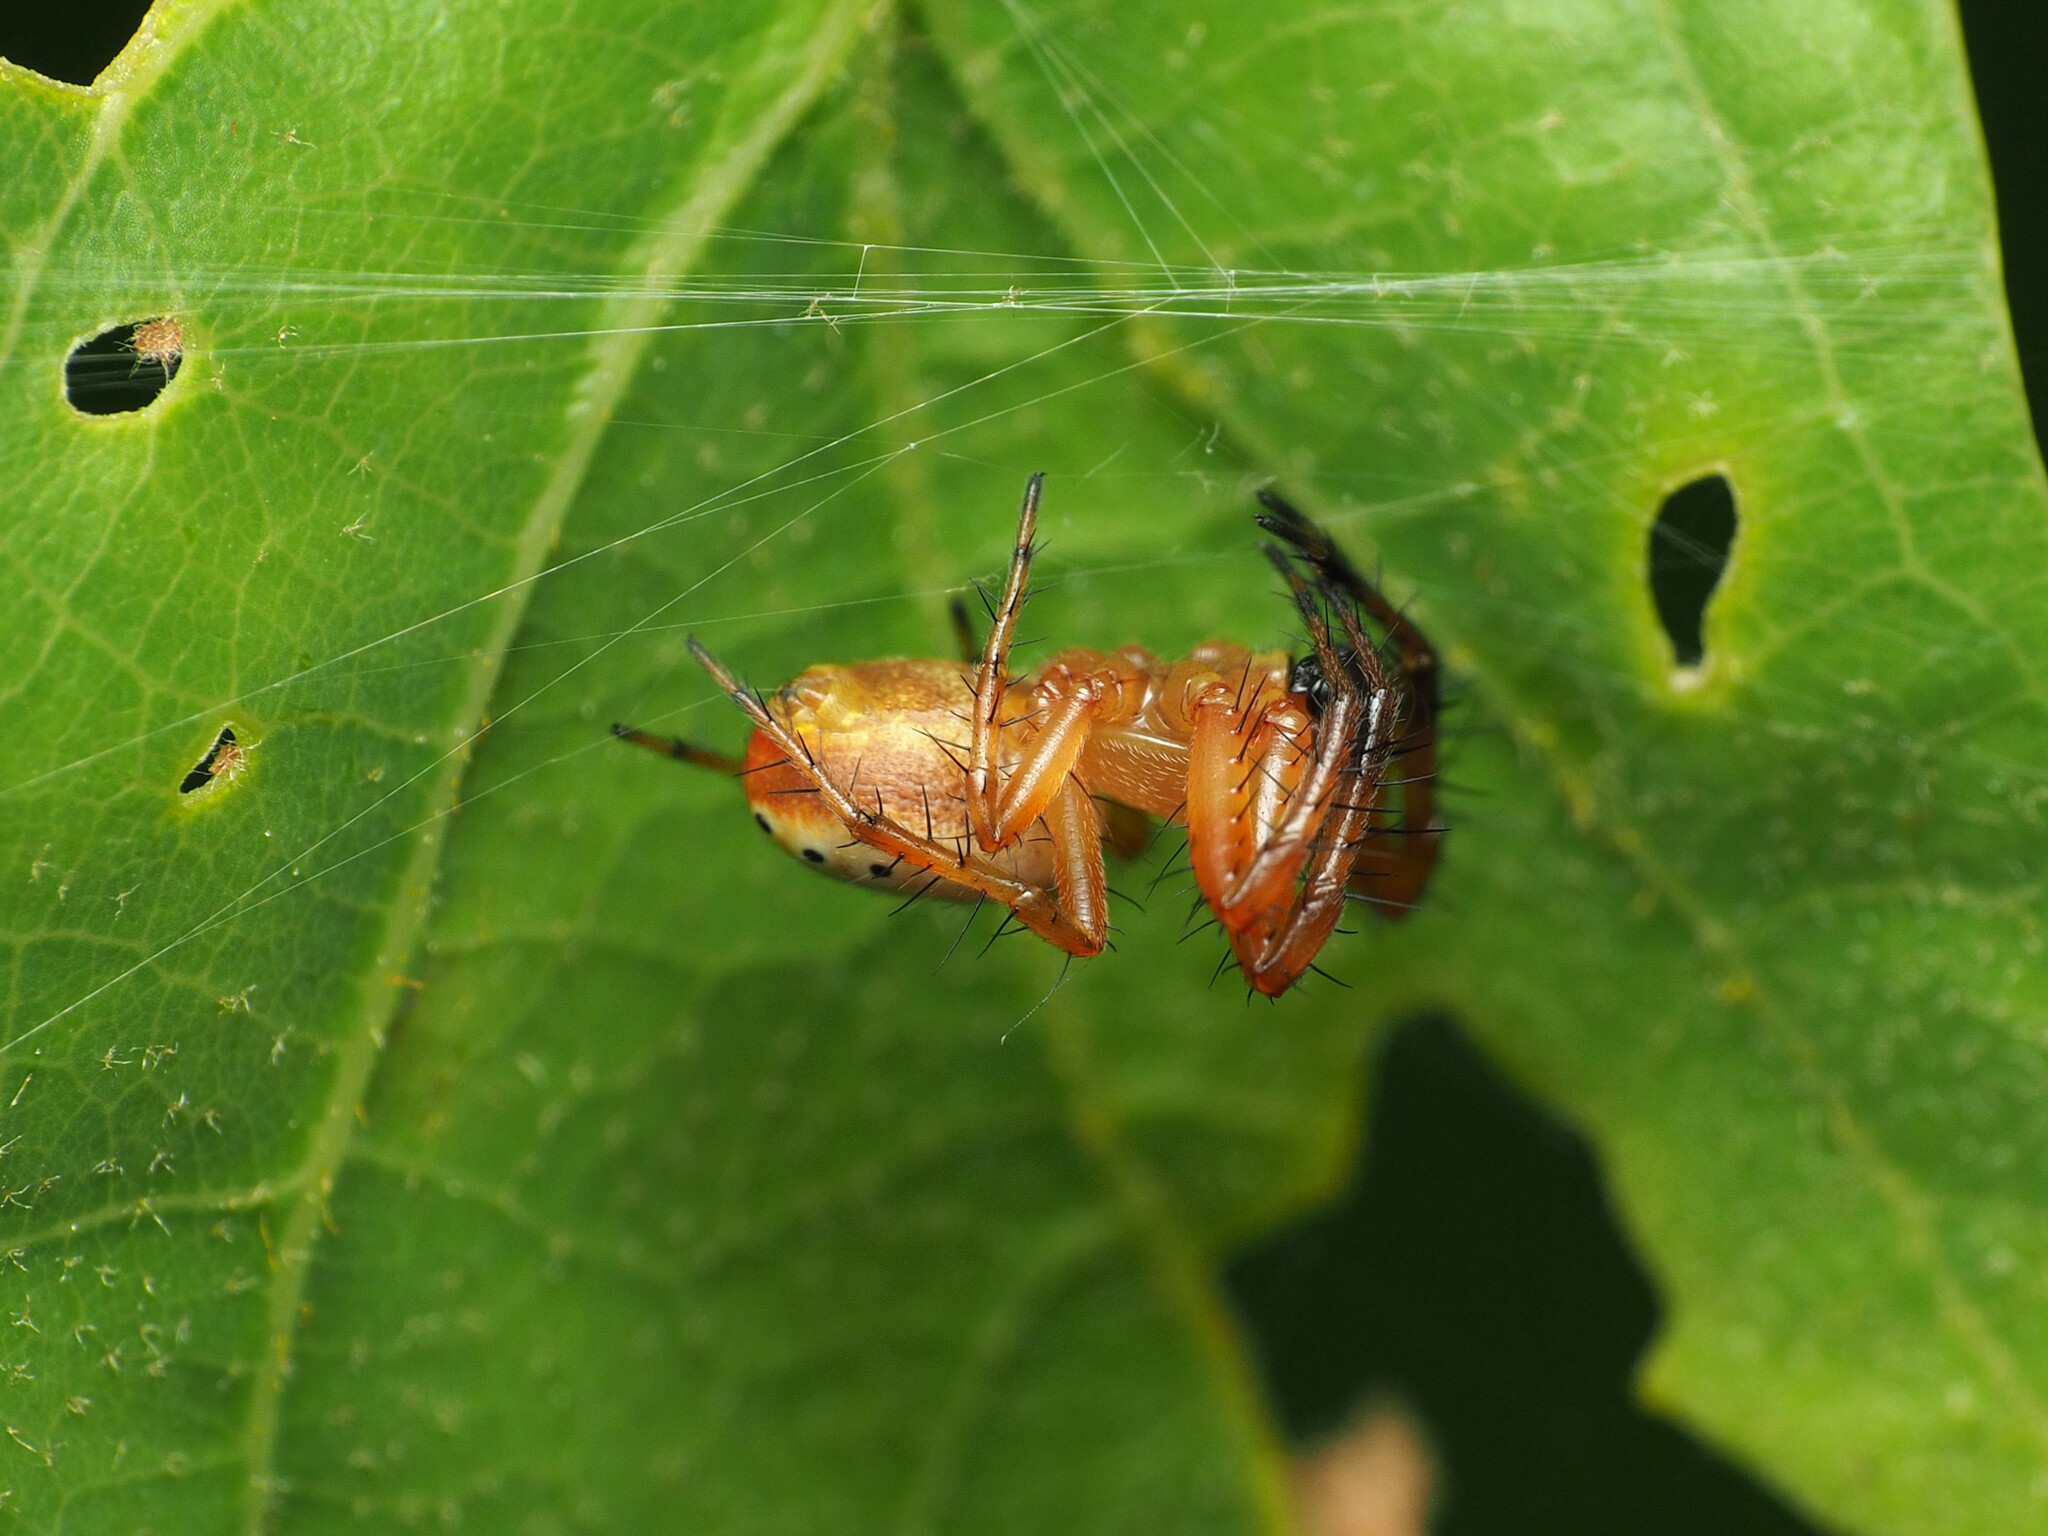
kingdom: Animalia
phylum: Arthropoda
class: Arachnida
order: Araneae
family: Araneidae
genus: Araniella
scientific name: Araniella displicata
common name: Sixspotted orb weaver
